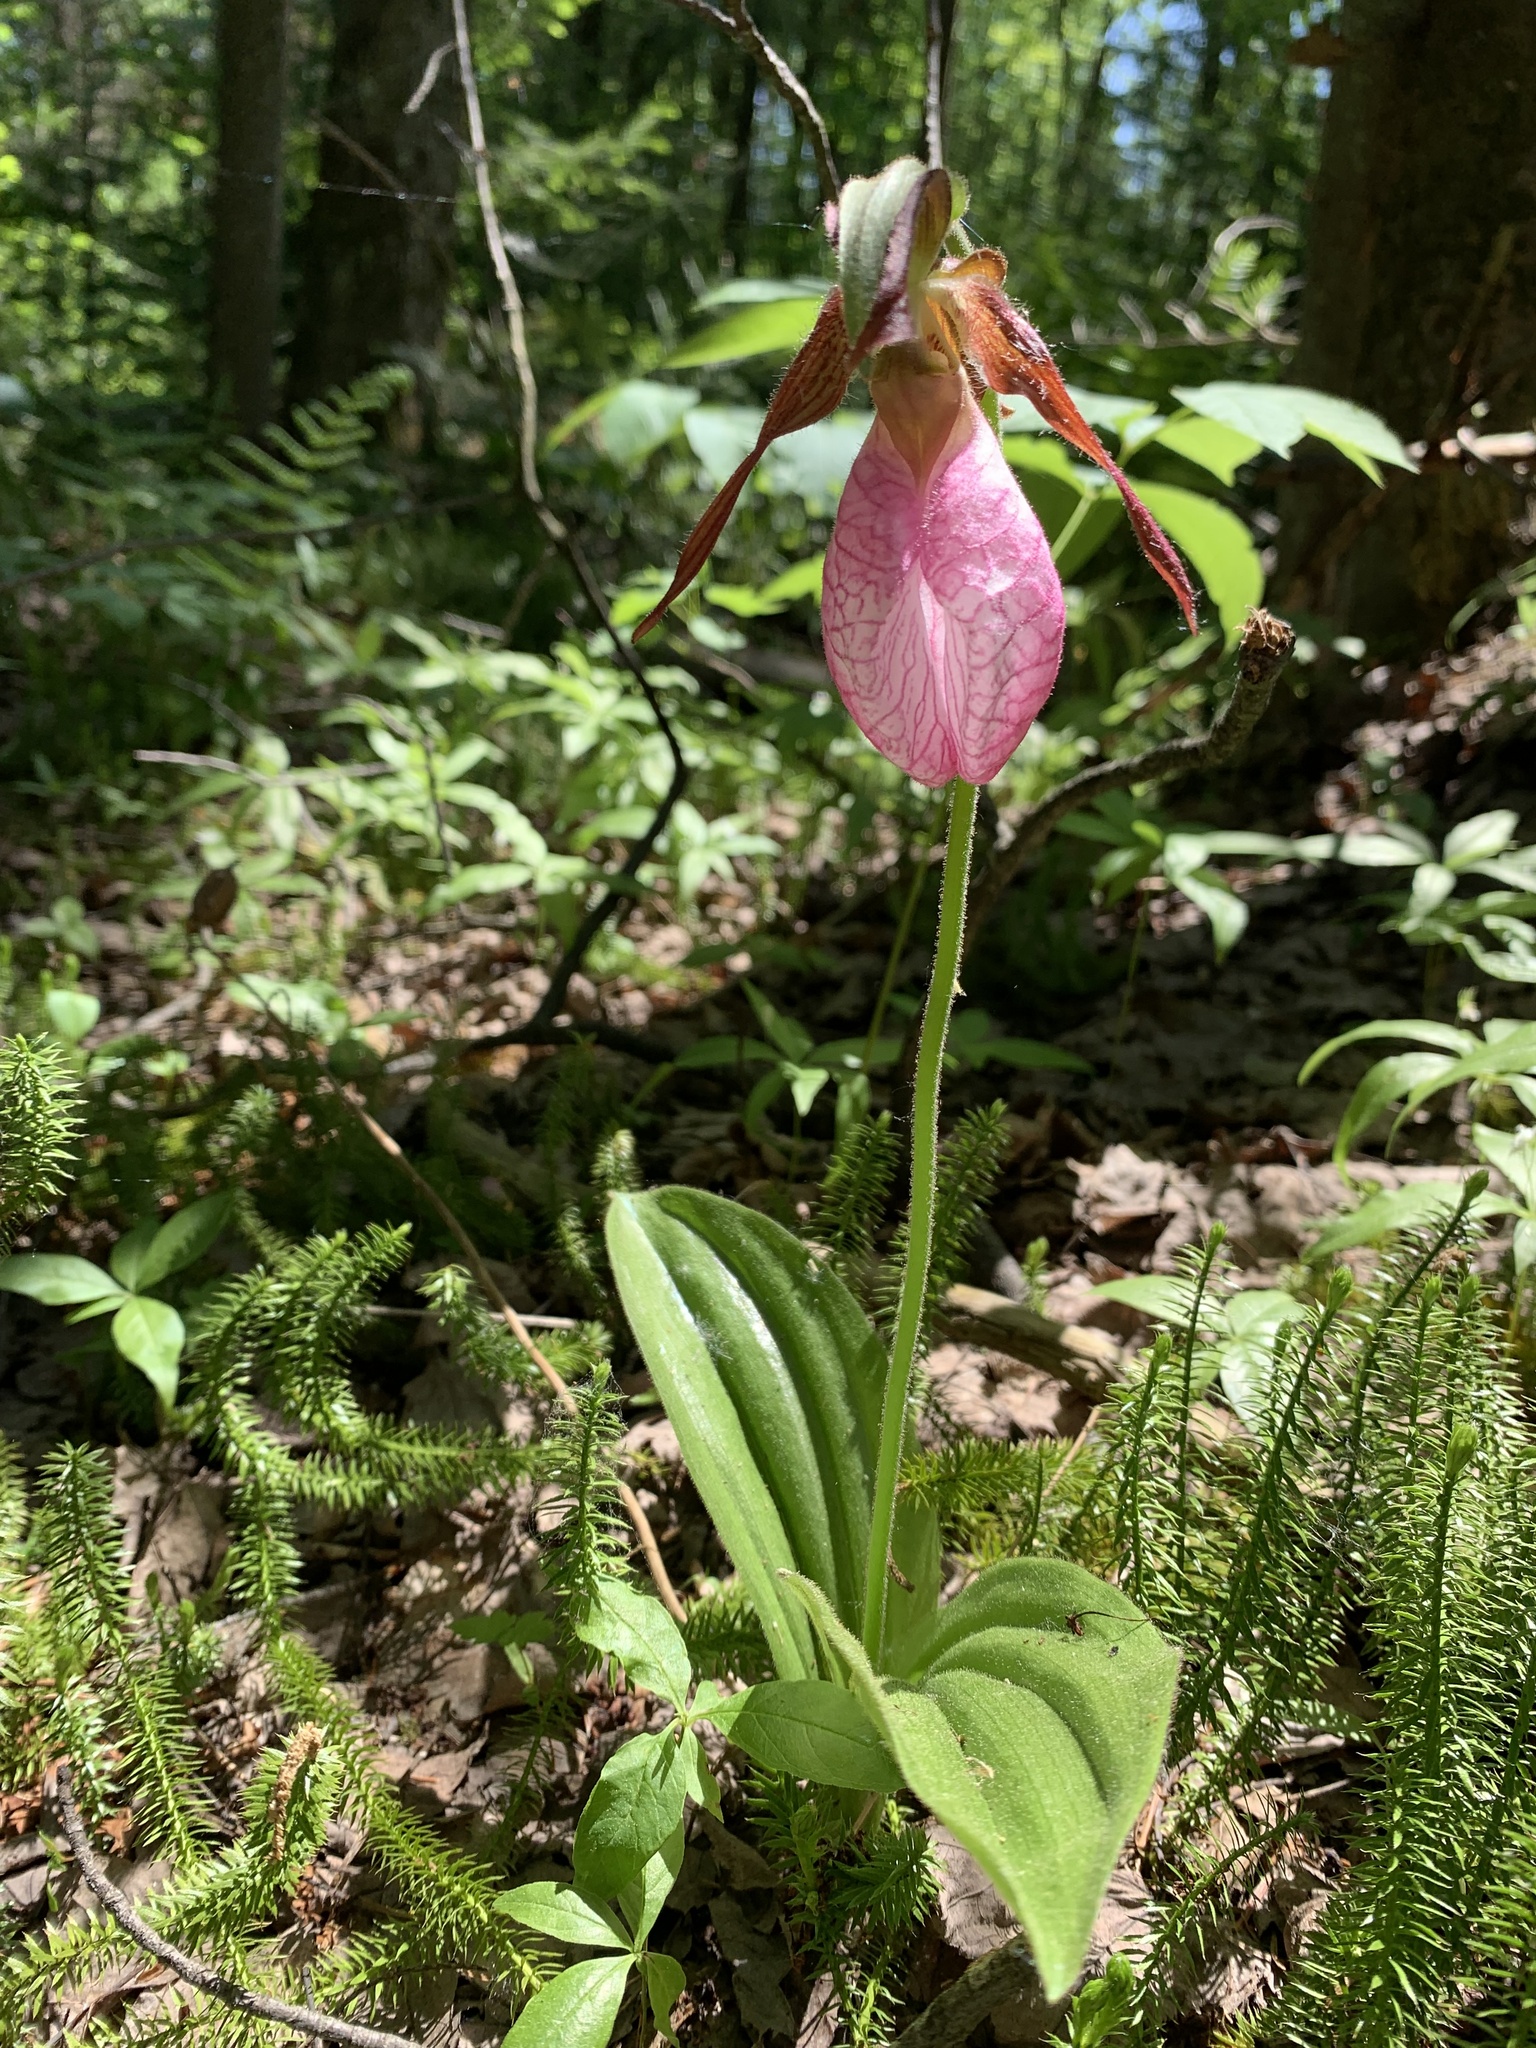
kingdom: Plantae
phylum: Tracheophyta
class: Liliopsida
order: Asparagales
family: Orchidaceae
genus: Cypripedium
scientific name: Cypripedium acaule
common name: Pink lady's-slipper
